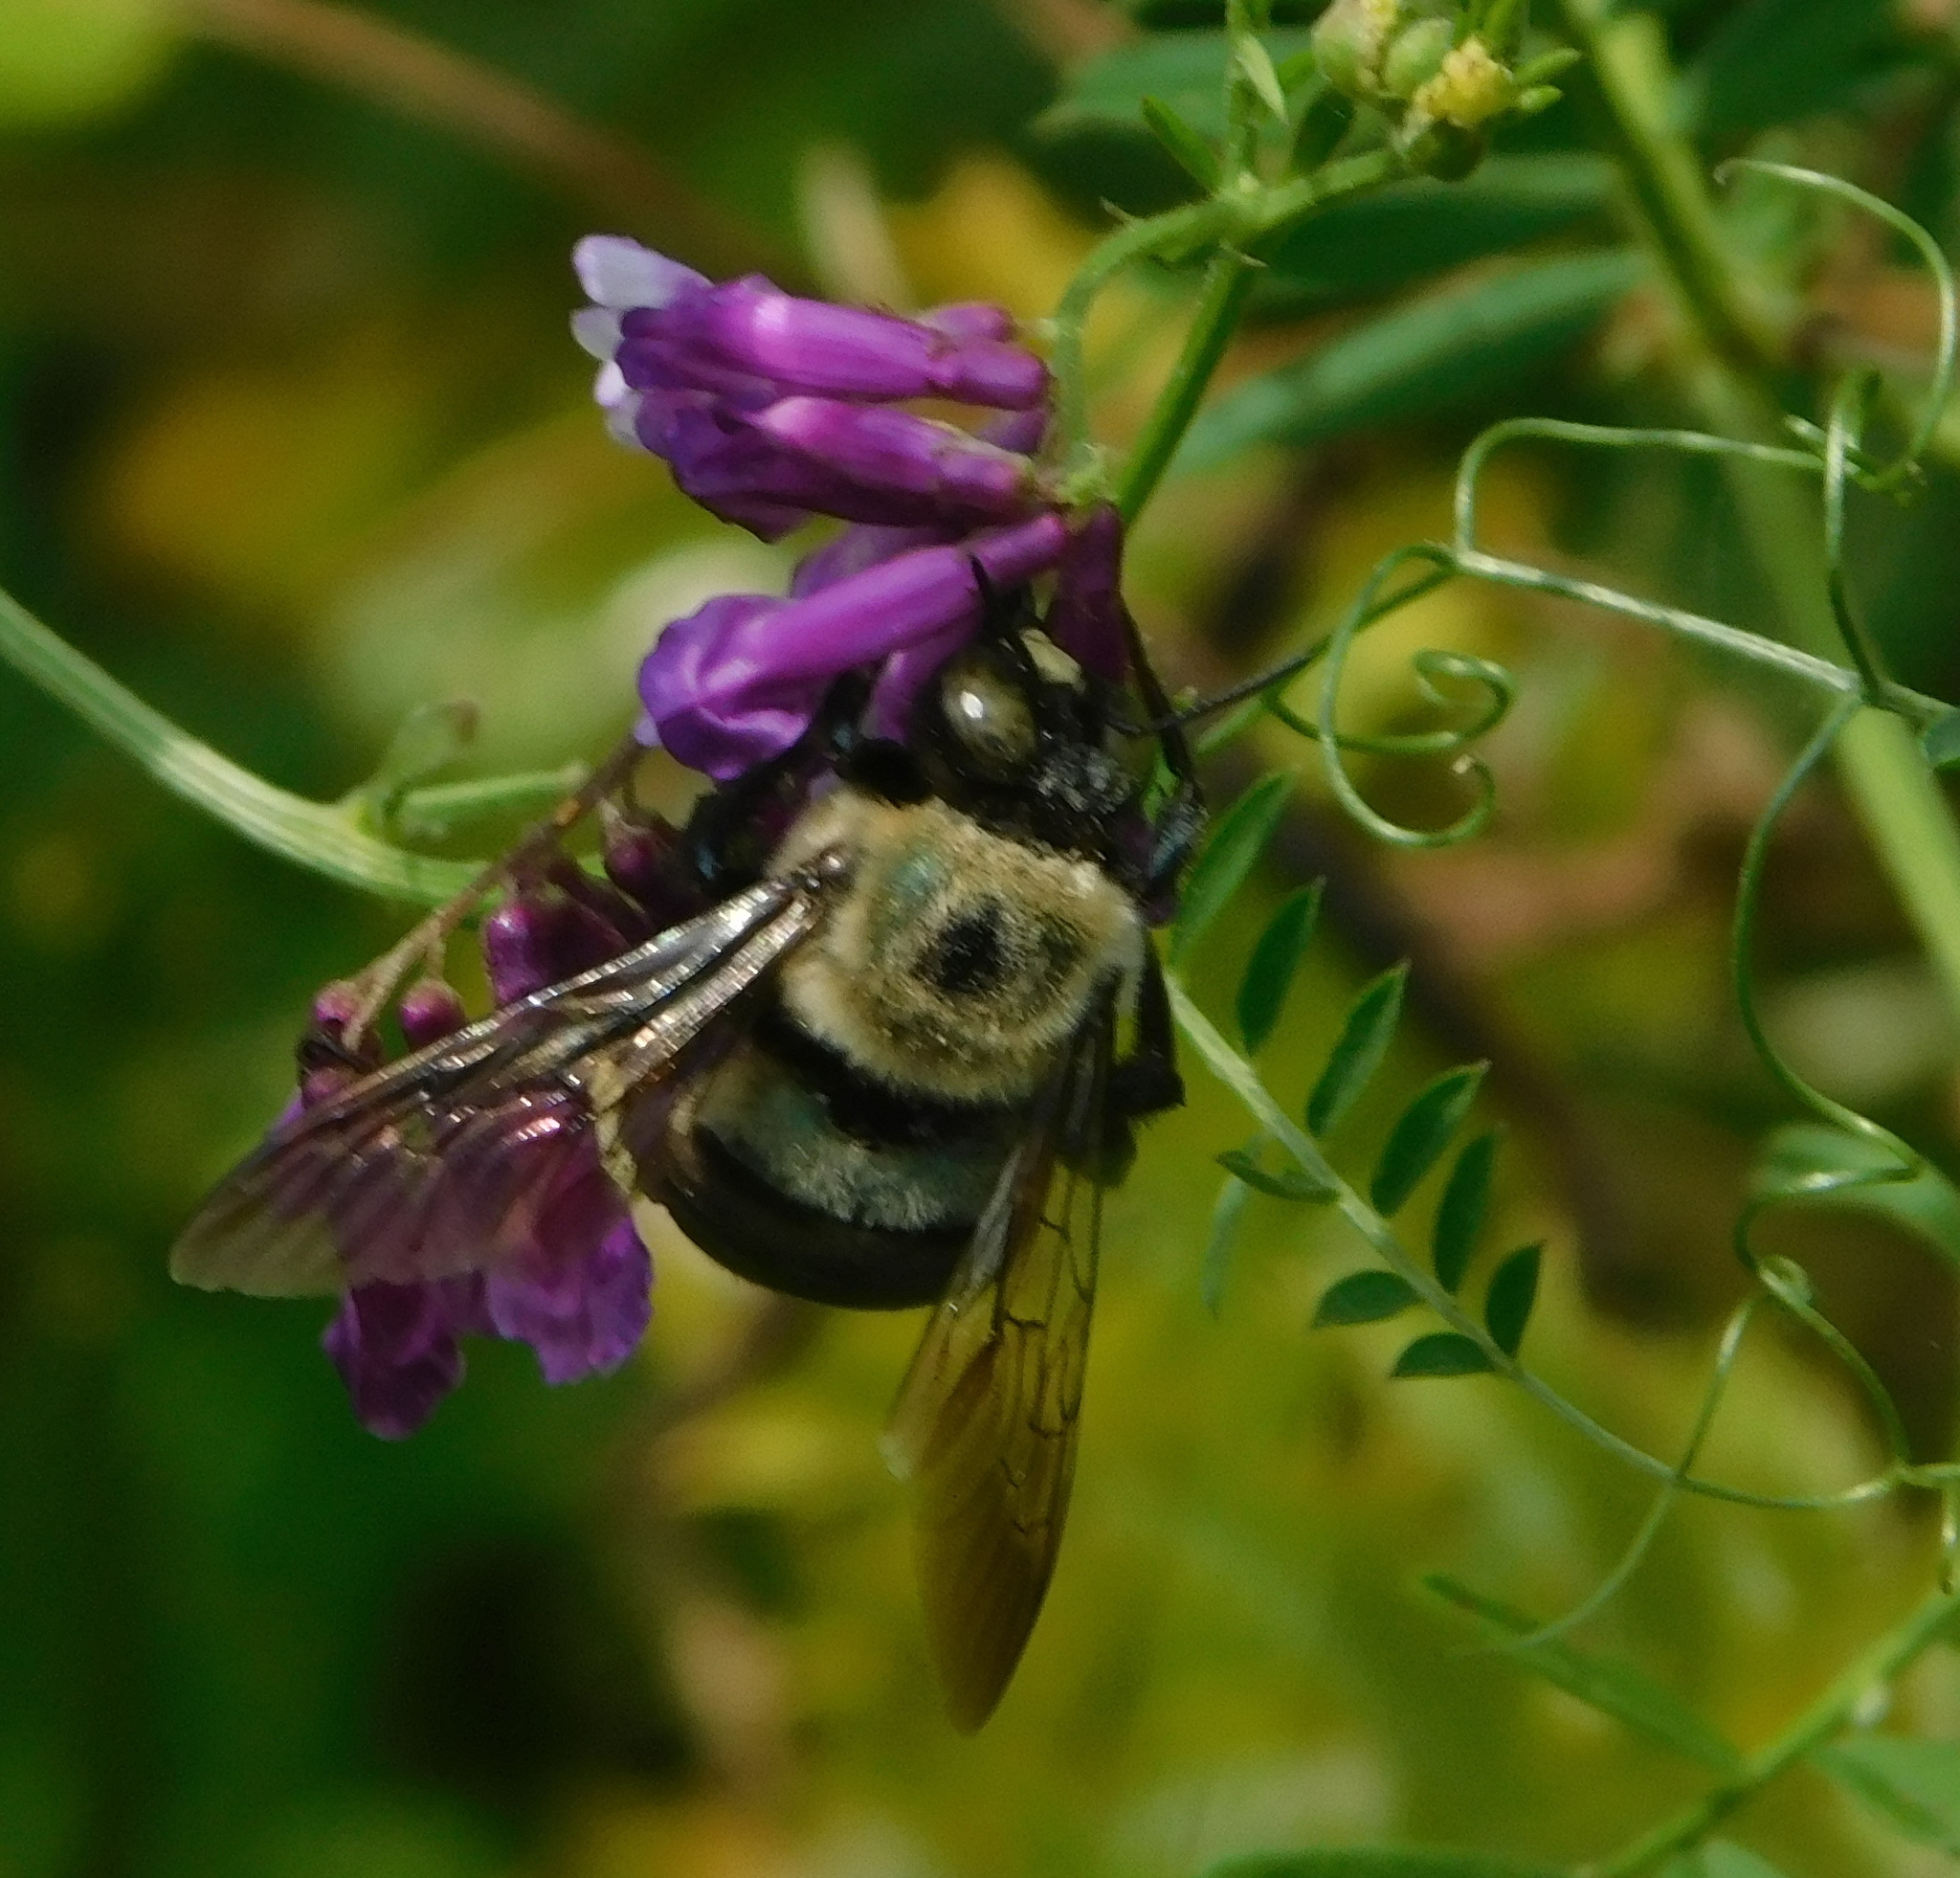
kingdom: Animalia
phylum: Arthropoda
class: Insecta
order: Hymenoptera
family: Apidae
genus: Xylocopa
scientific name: Xylocopa virginica
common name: Carpenter bee
